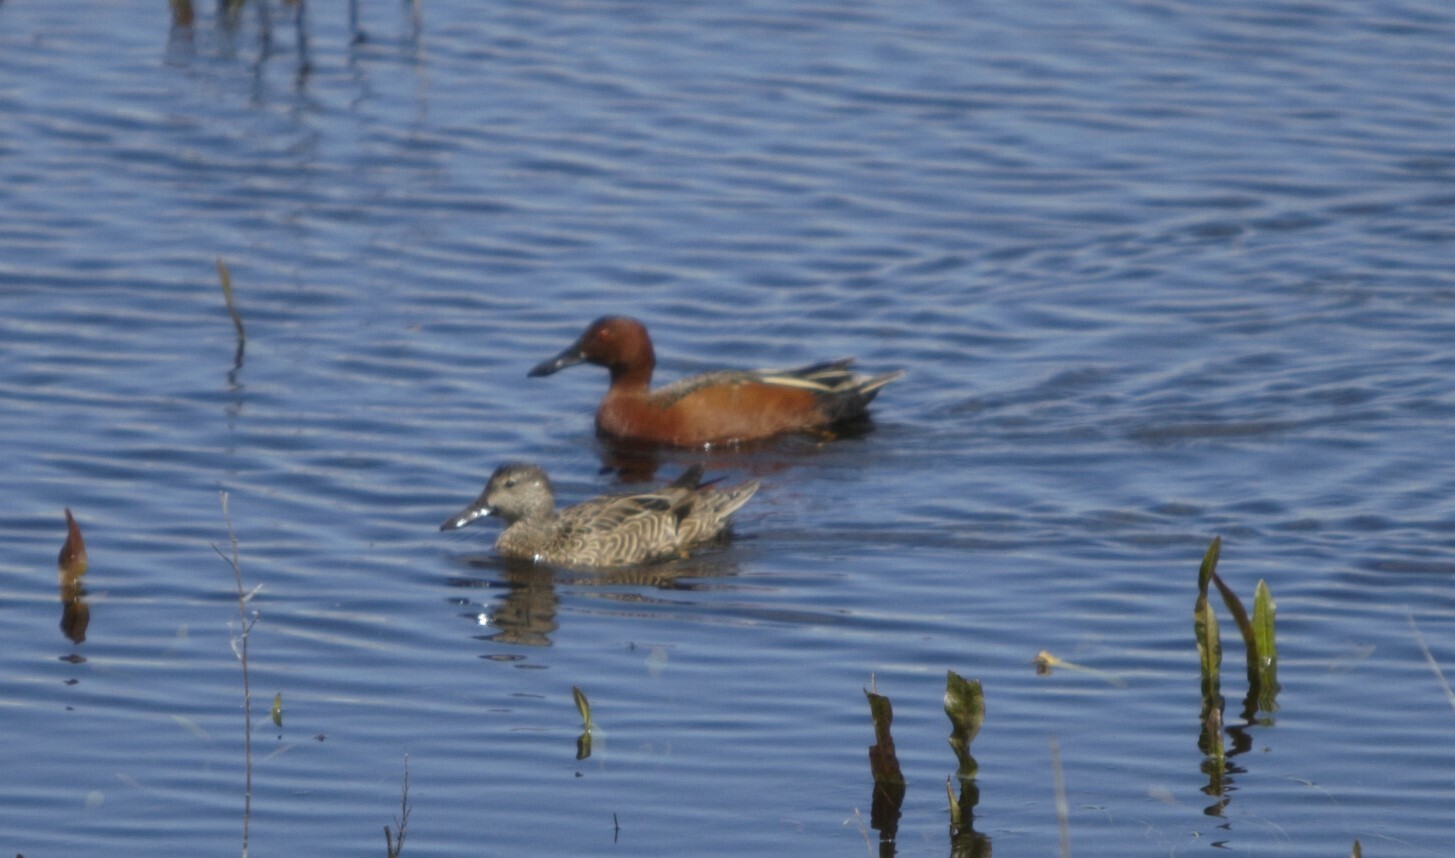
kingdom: Animalia
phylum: Chordata
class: Aves
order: Anseriformes
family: Anatidae
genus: Spatula
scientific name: Spatula cyanoptera
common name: Cinnamon teal
